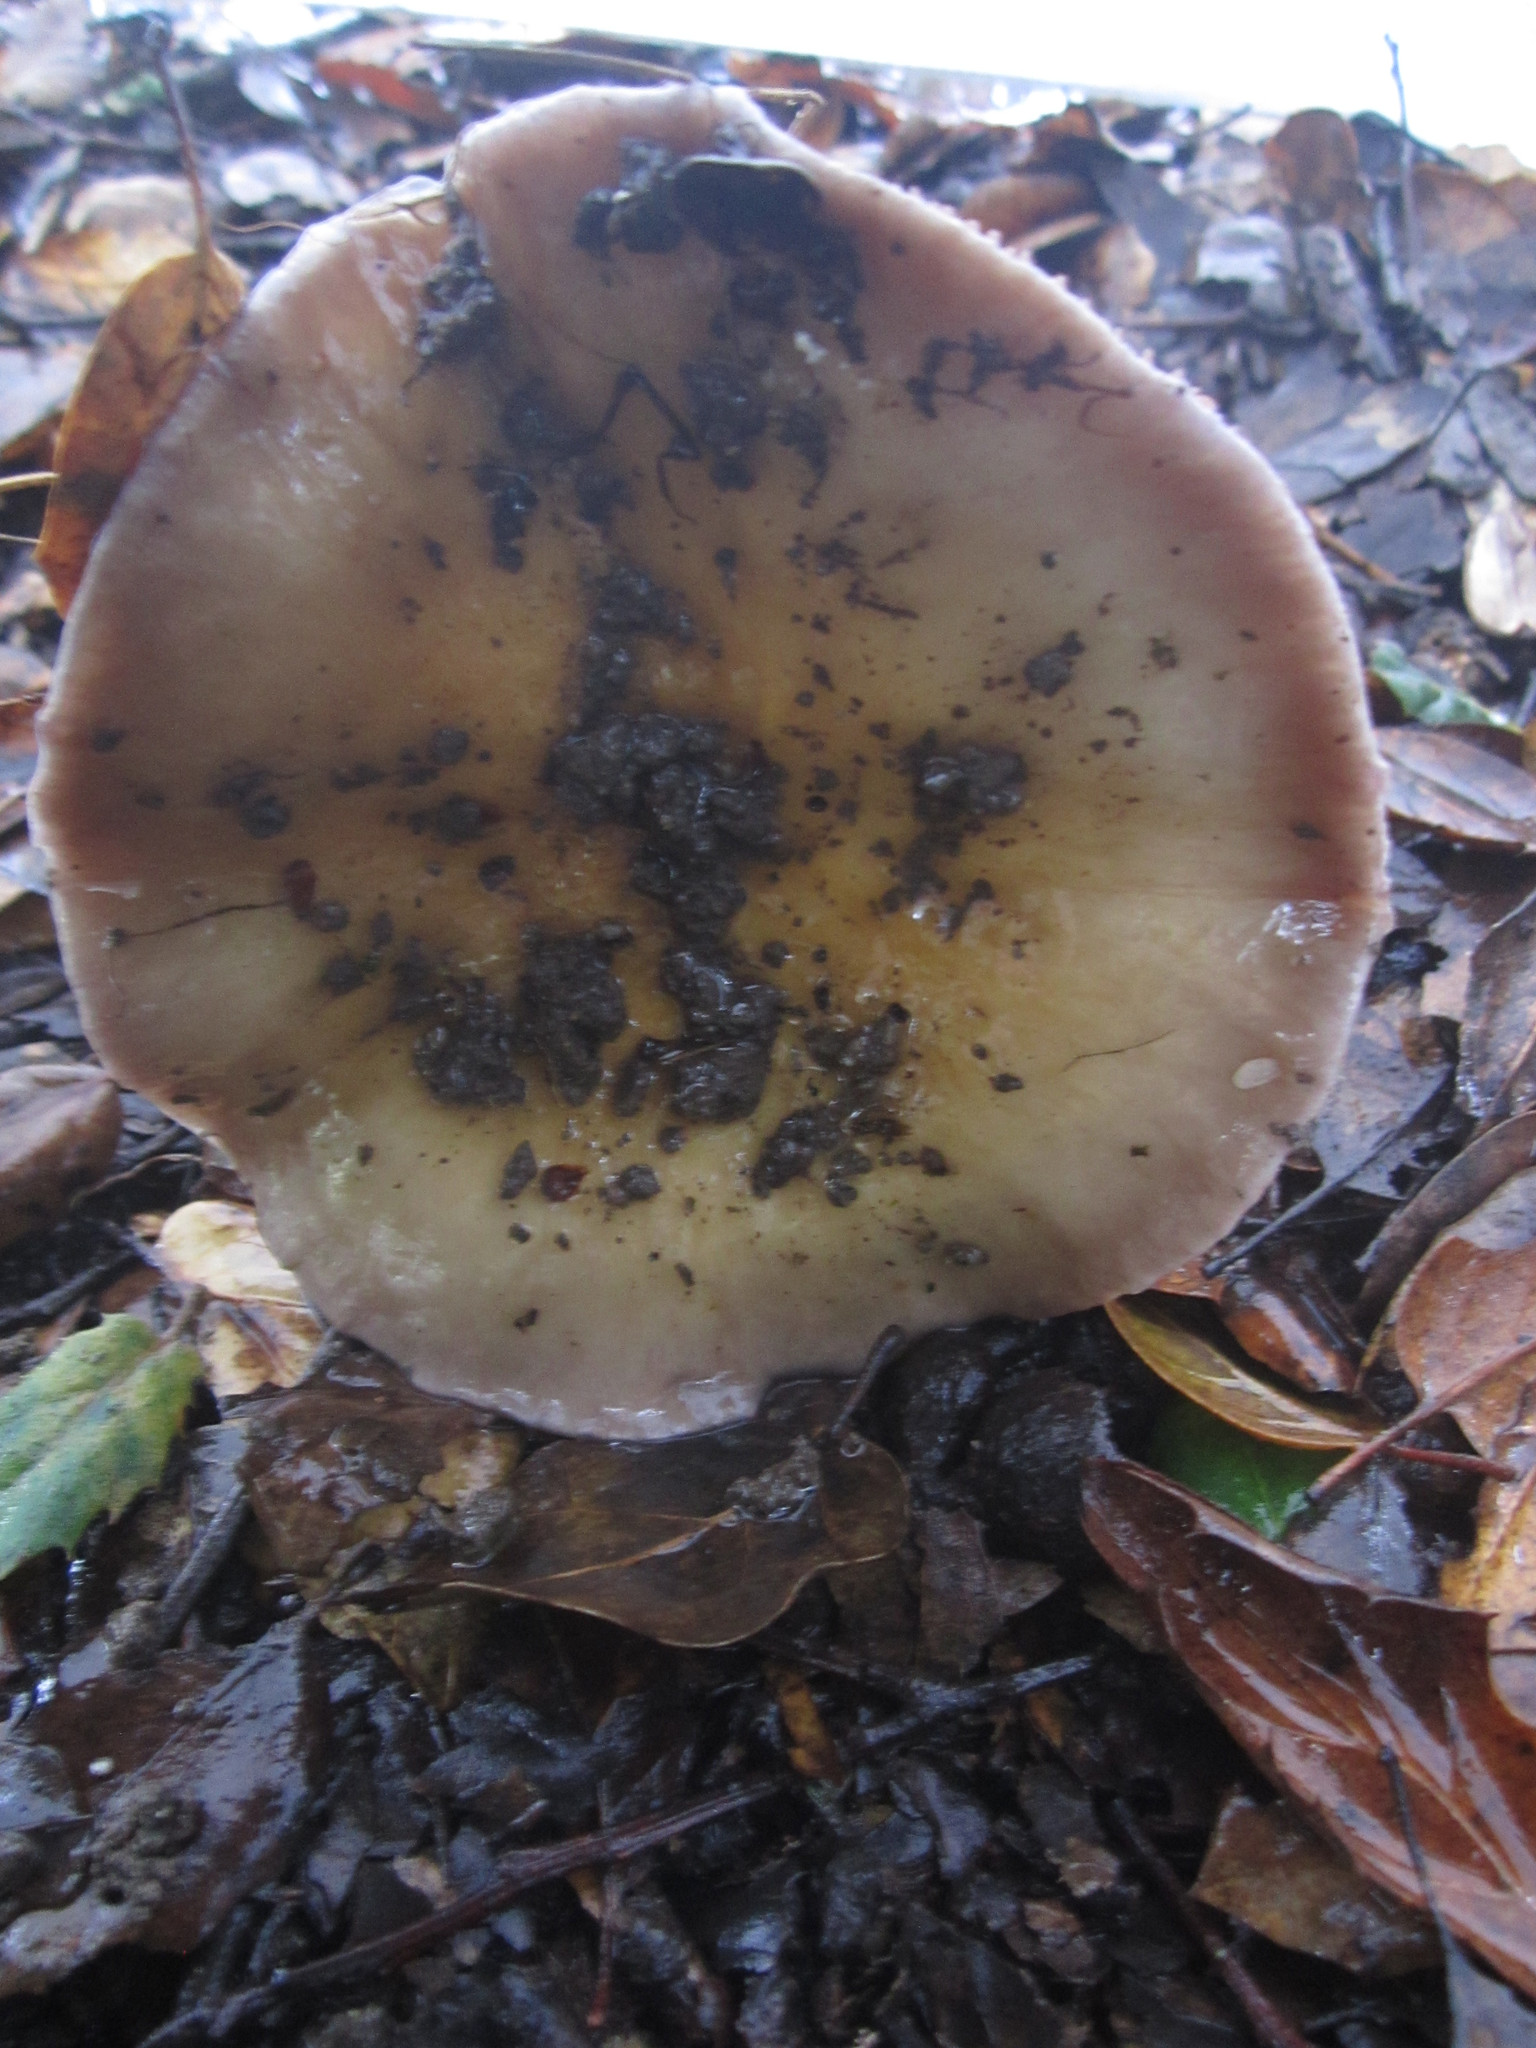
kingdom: Fungi
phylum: Basidiomycota
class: Agaricomycetes
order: Agaricales
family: Cortinariaceae
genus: Cortinarius
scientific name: Cortinarius glutinosoarmillatus
